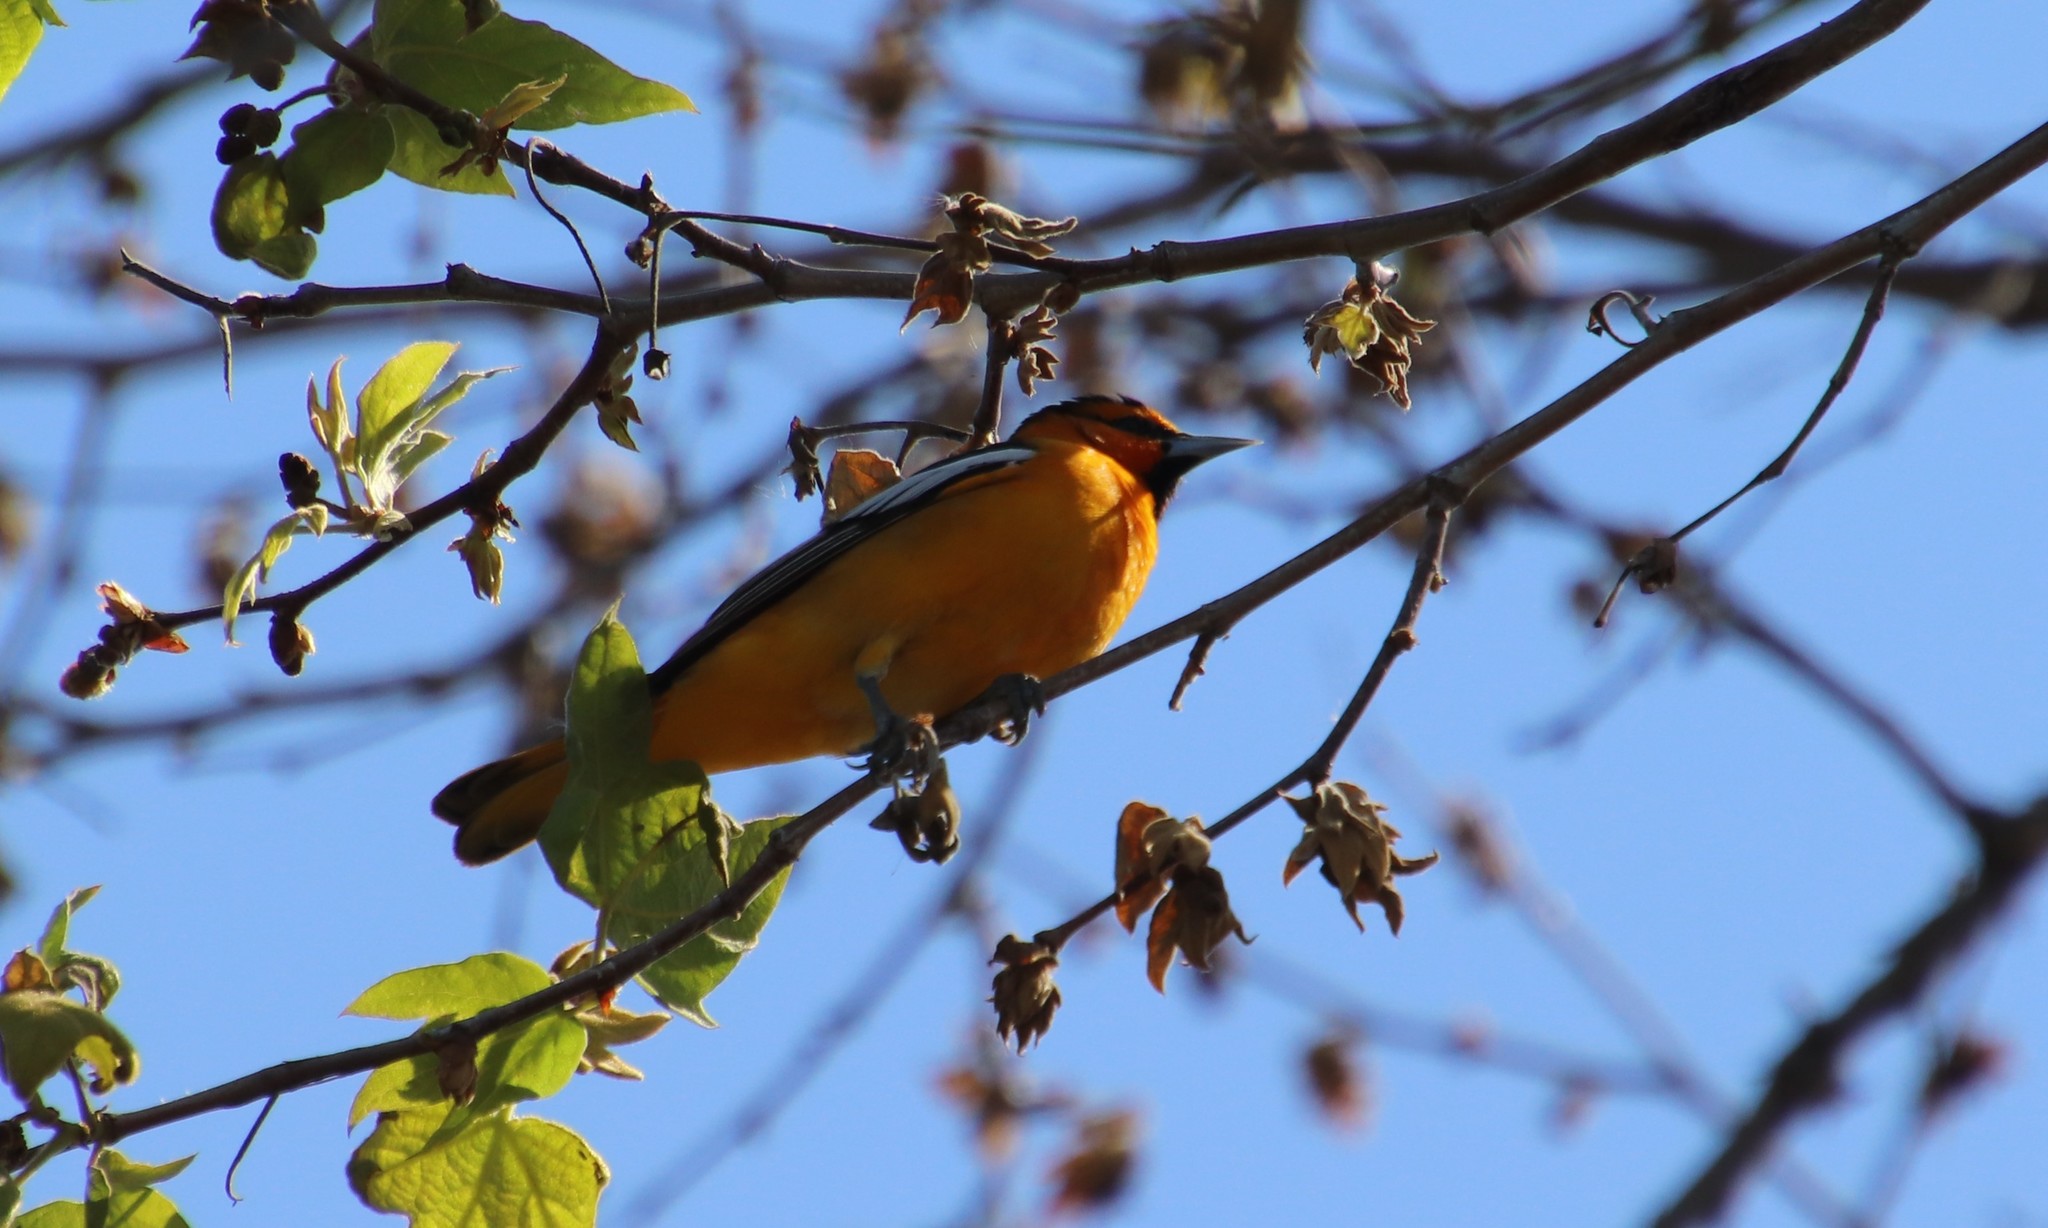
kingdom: Animalia
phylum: Chordata
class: Aves
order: Passeriformes
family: Icteridae
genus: Icterus
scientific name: Icterus bullockii
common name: Bullock's oriole
